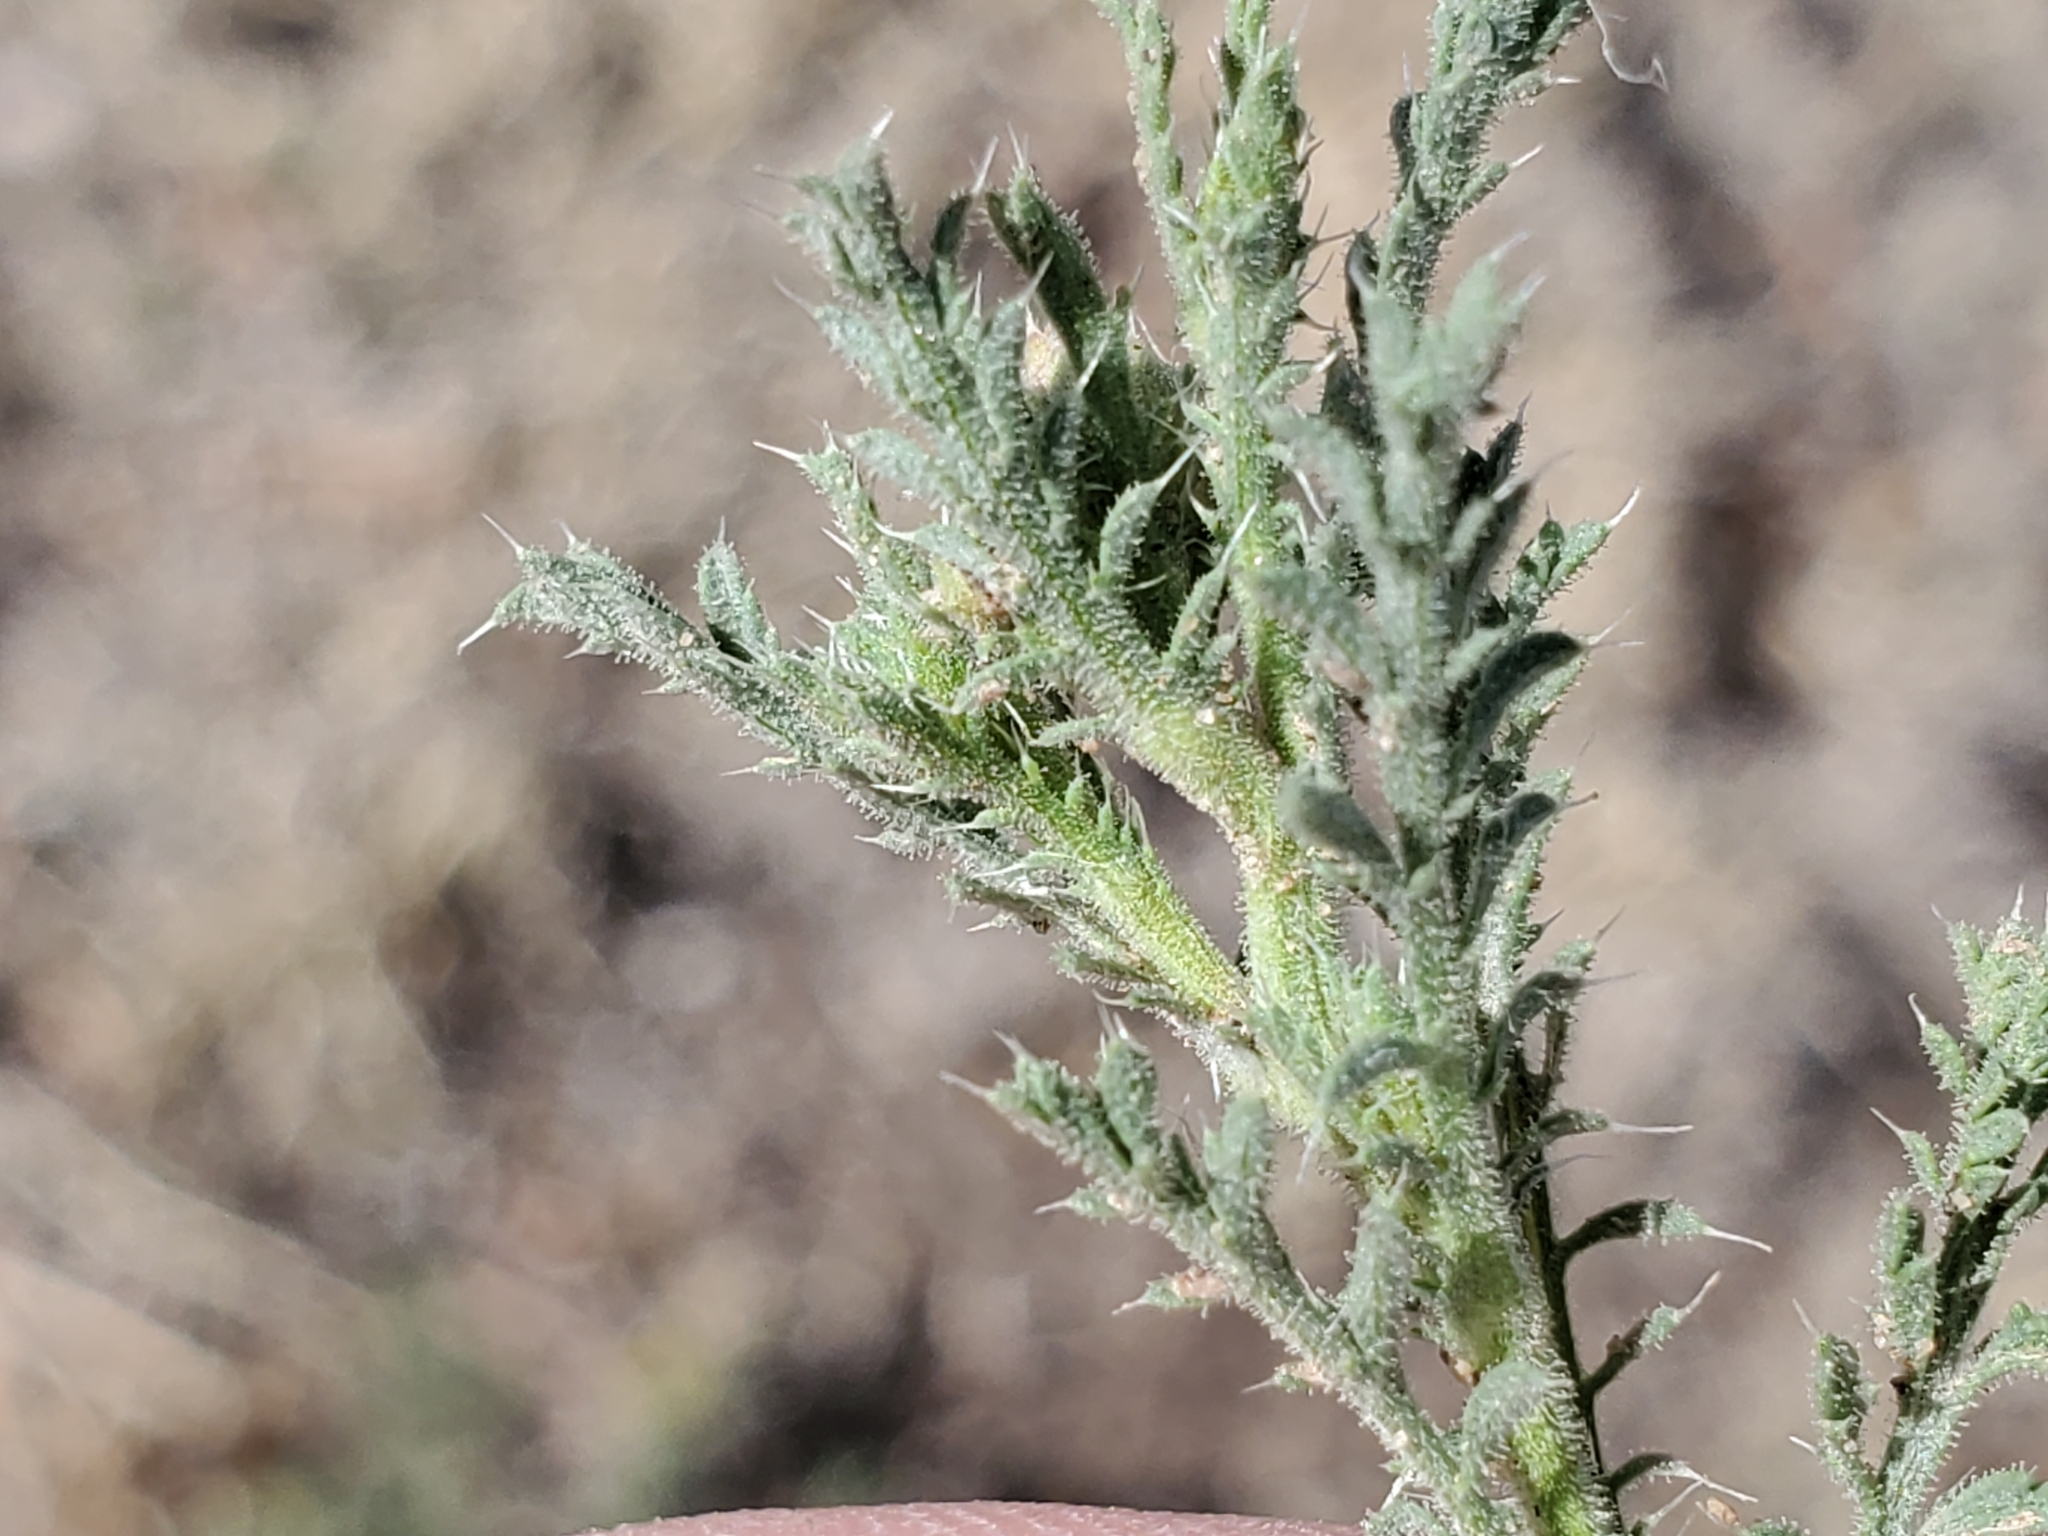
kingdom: Plantae
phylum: Tracheophyta
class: Magnoliopsida
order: Asterales
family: Asteraceae
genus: Xanthisma
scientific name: Xanthisma spinulosum
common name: Spiny goldenweed
